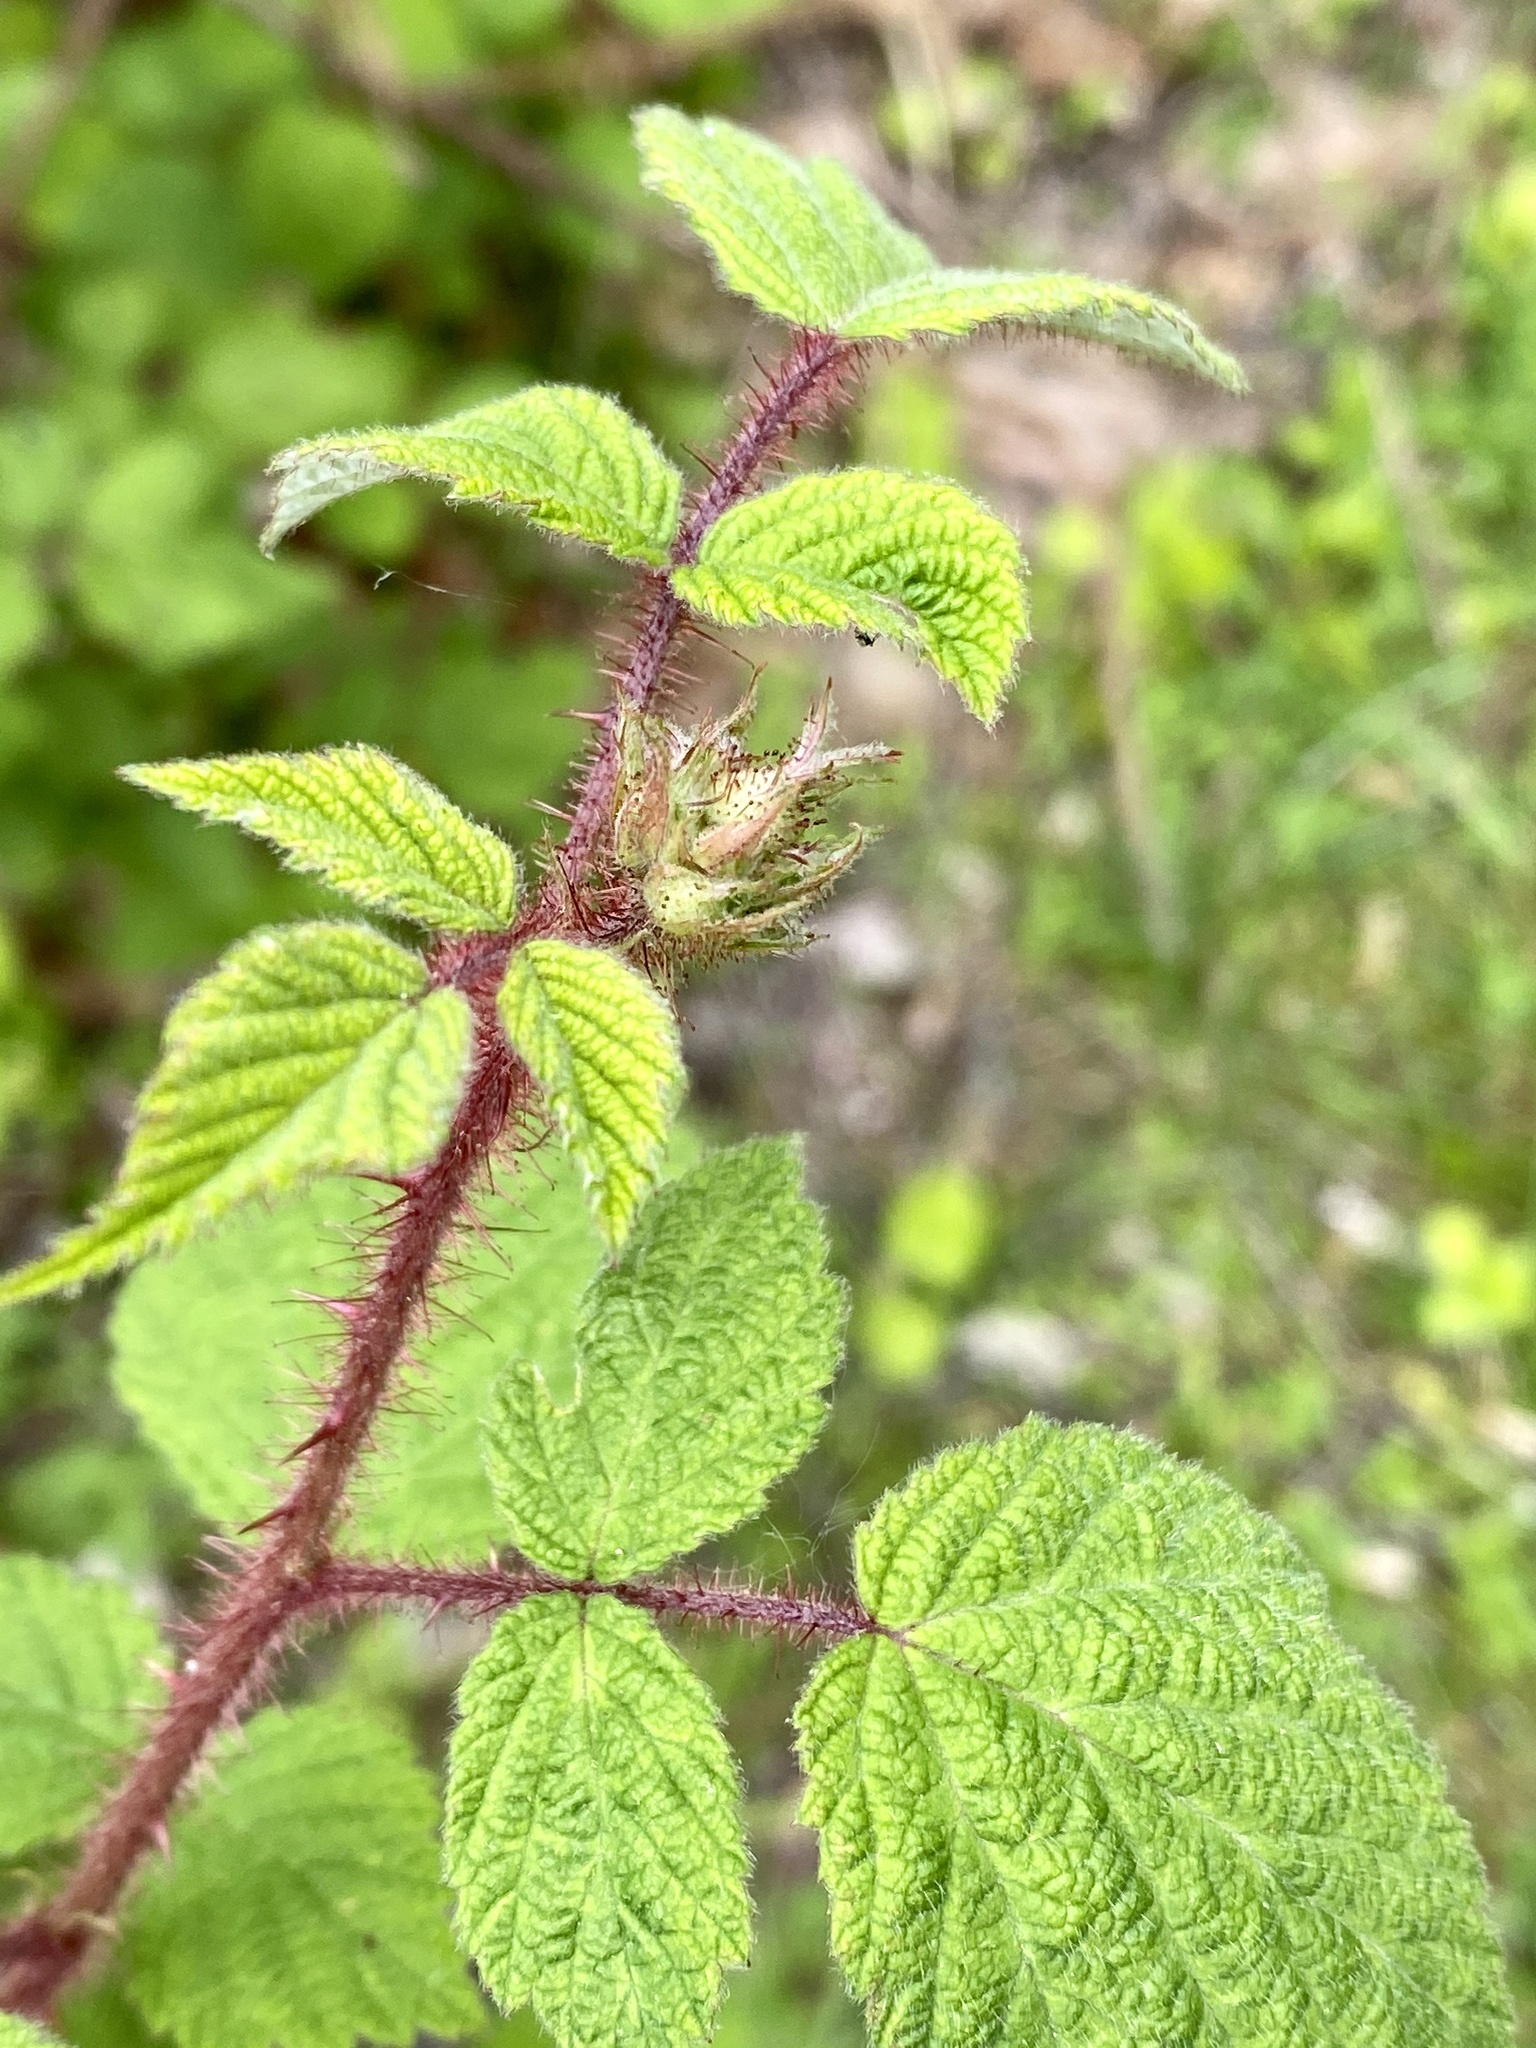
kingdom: Plantae
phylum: Tracheophyta
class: Magnoliopsida
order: Rosales
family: Rosaceae
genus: Rubus
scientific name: Rubus phoenicolasius
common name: Japanese wineberry
